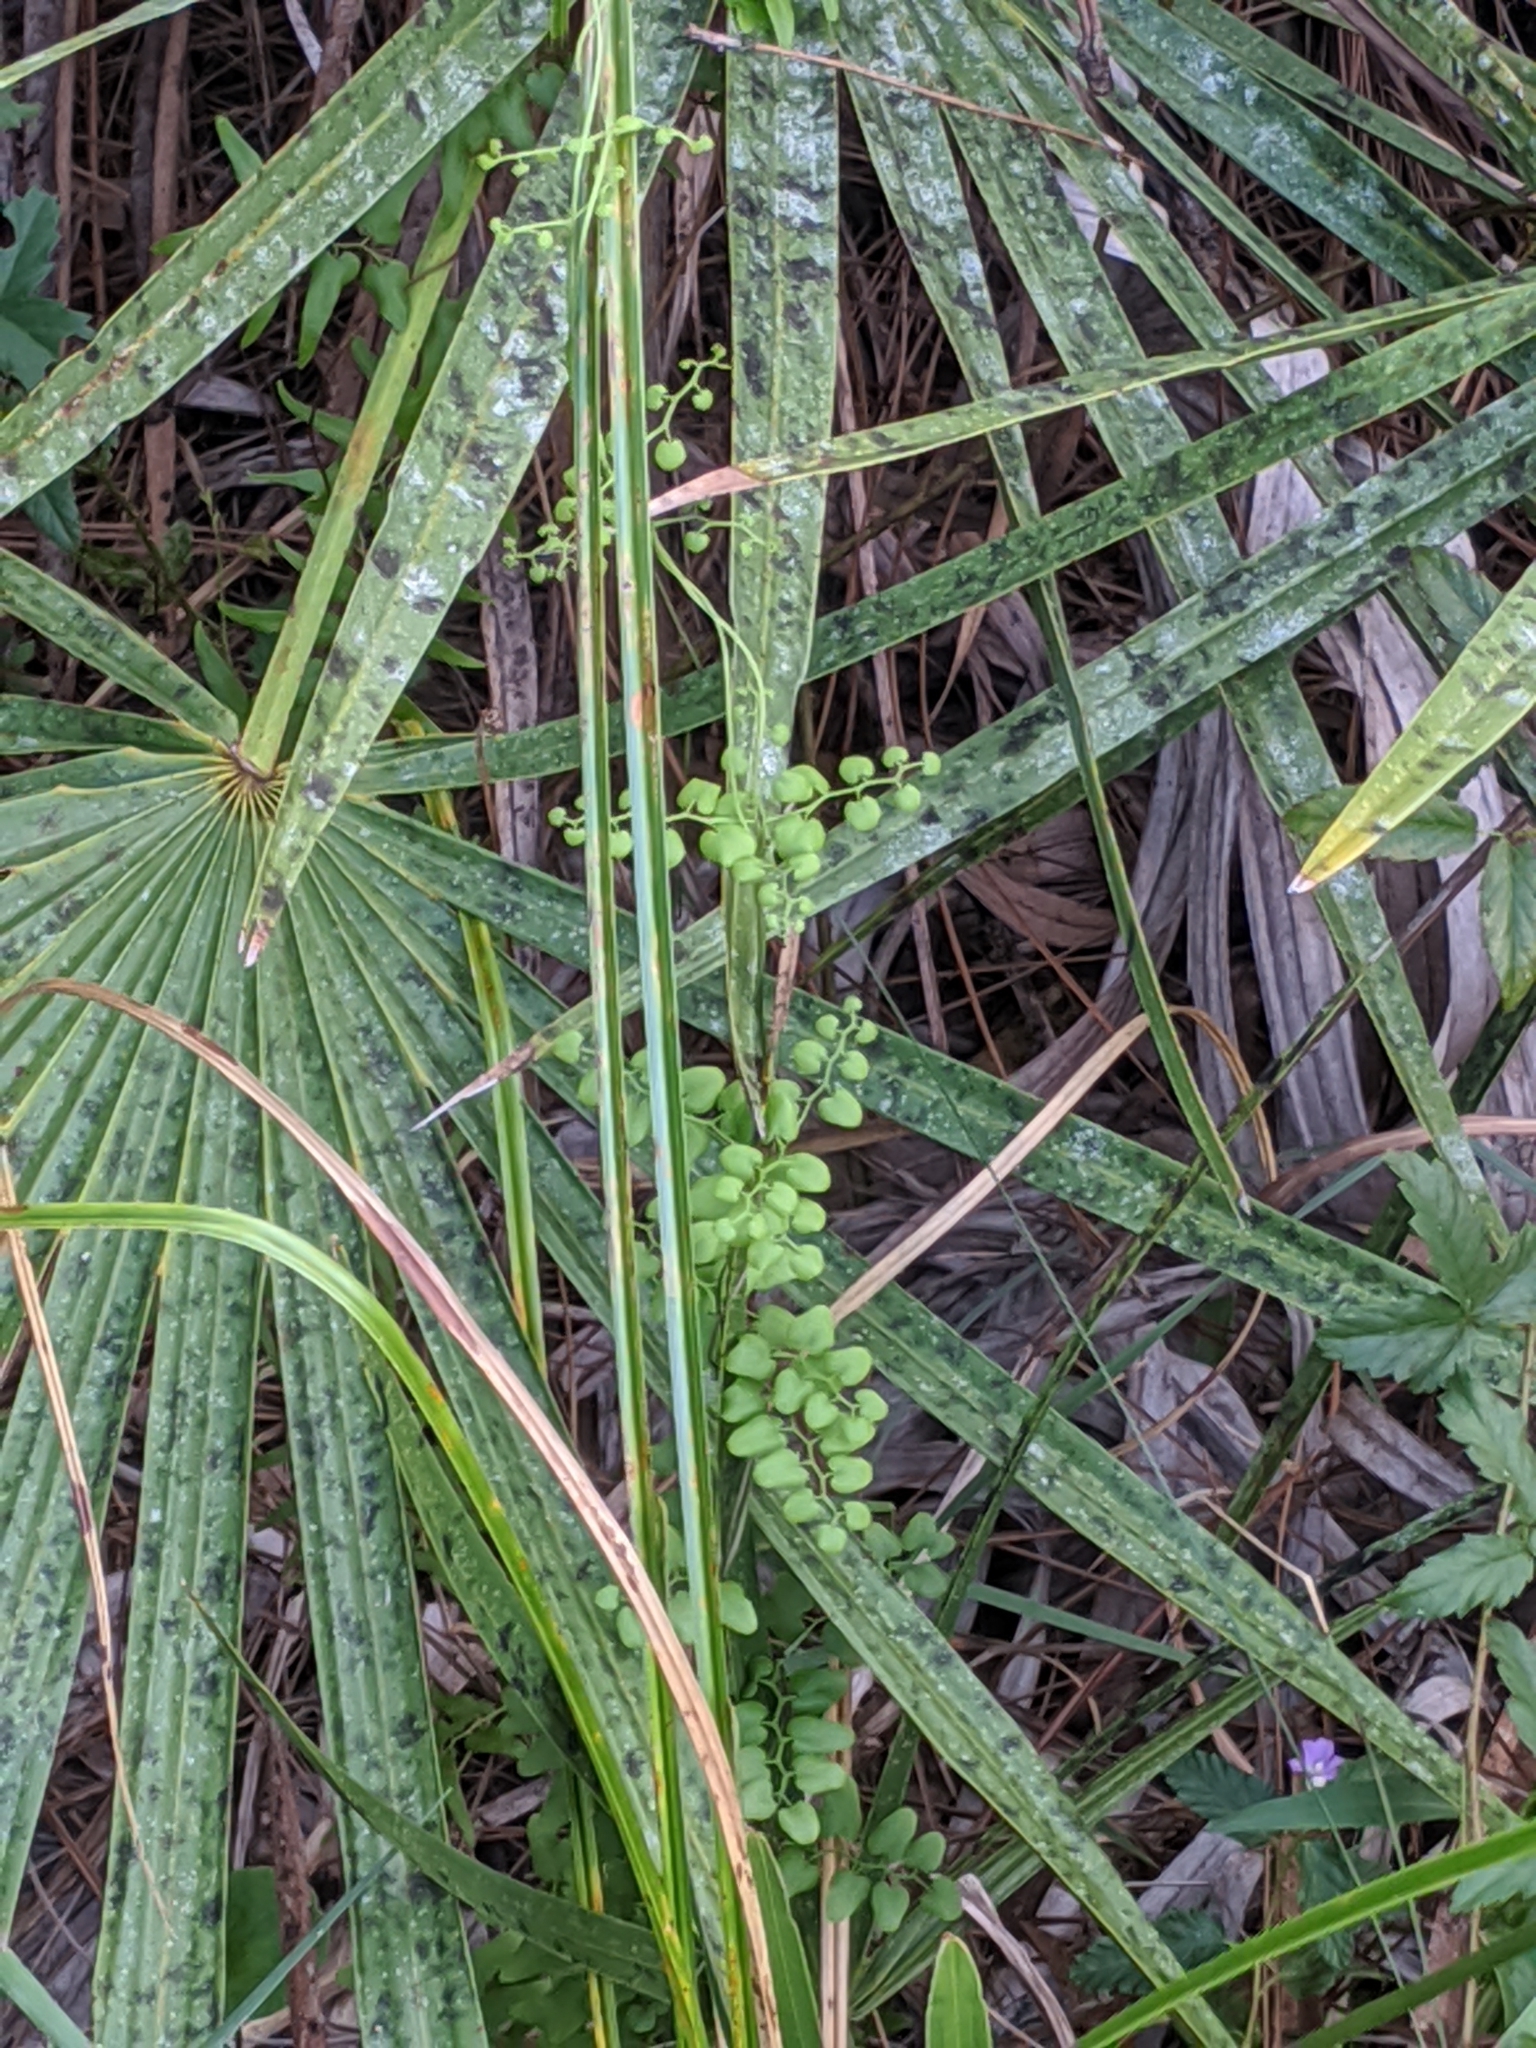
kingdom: Plantae
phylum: Tracheophyta
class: Polypodiopsida
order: Schizaeales
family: Lygodiaceae
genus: Lygodium
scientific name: Lygodium microphyllum
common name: Small-leaf climbing fern
